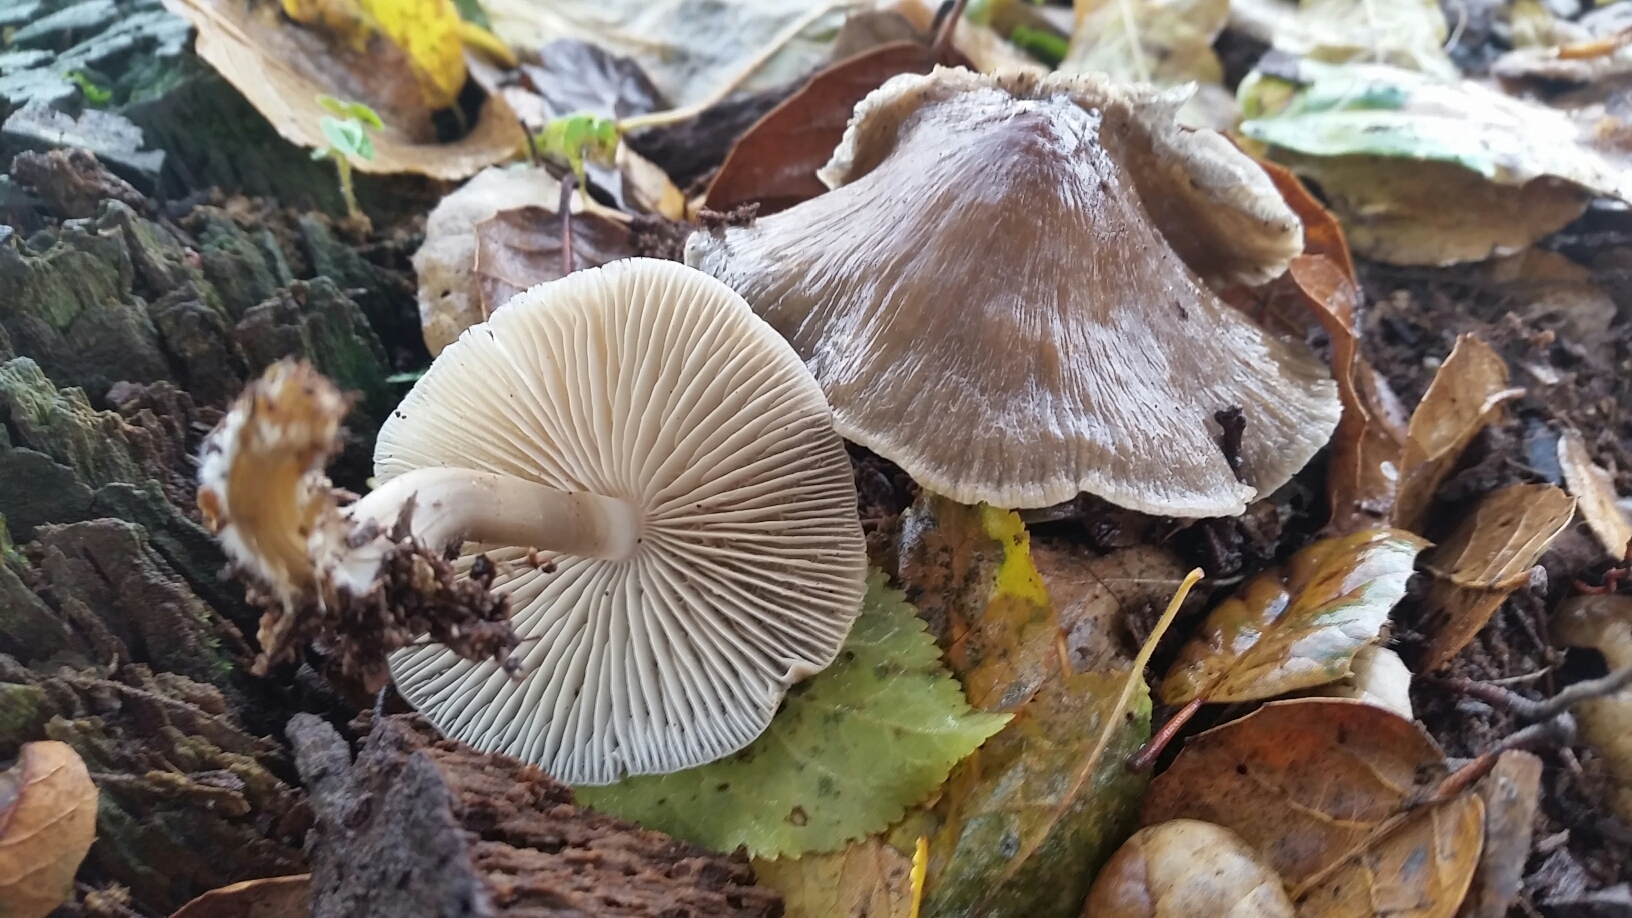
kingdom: Fungi
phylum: Basidiomycota
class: Agaricomycetes
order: Agaricales
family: Mycenaceae
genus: Mycena
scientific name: Mycena galericulata
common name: Bonnet mycena
